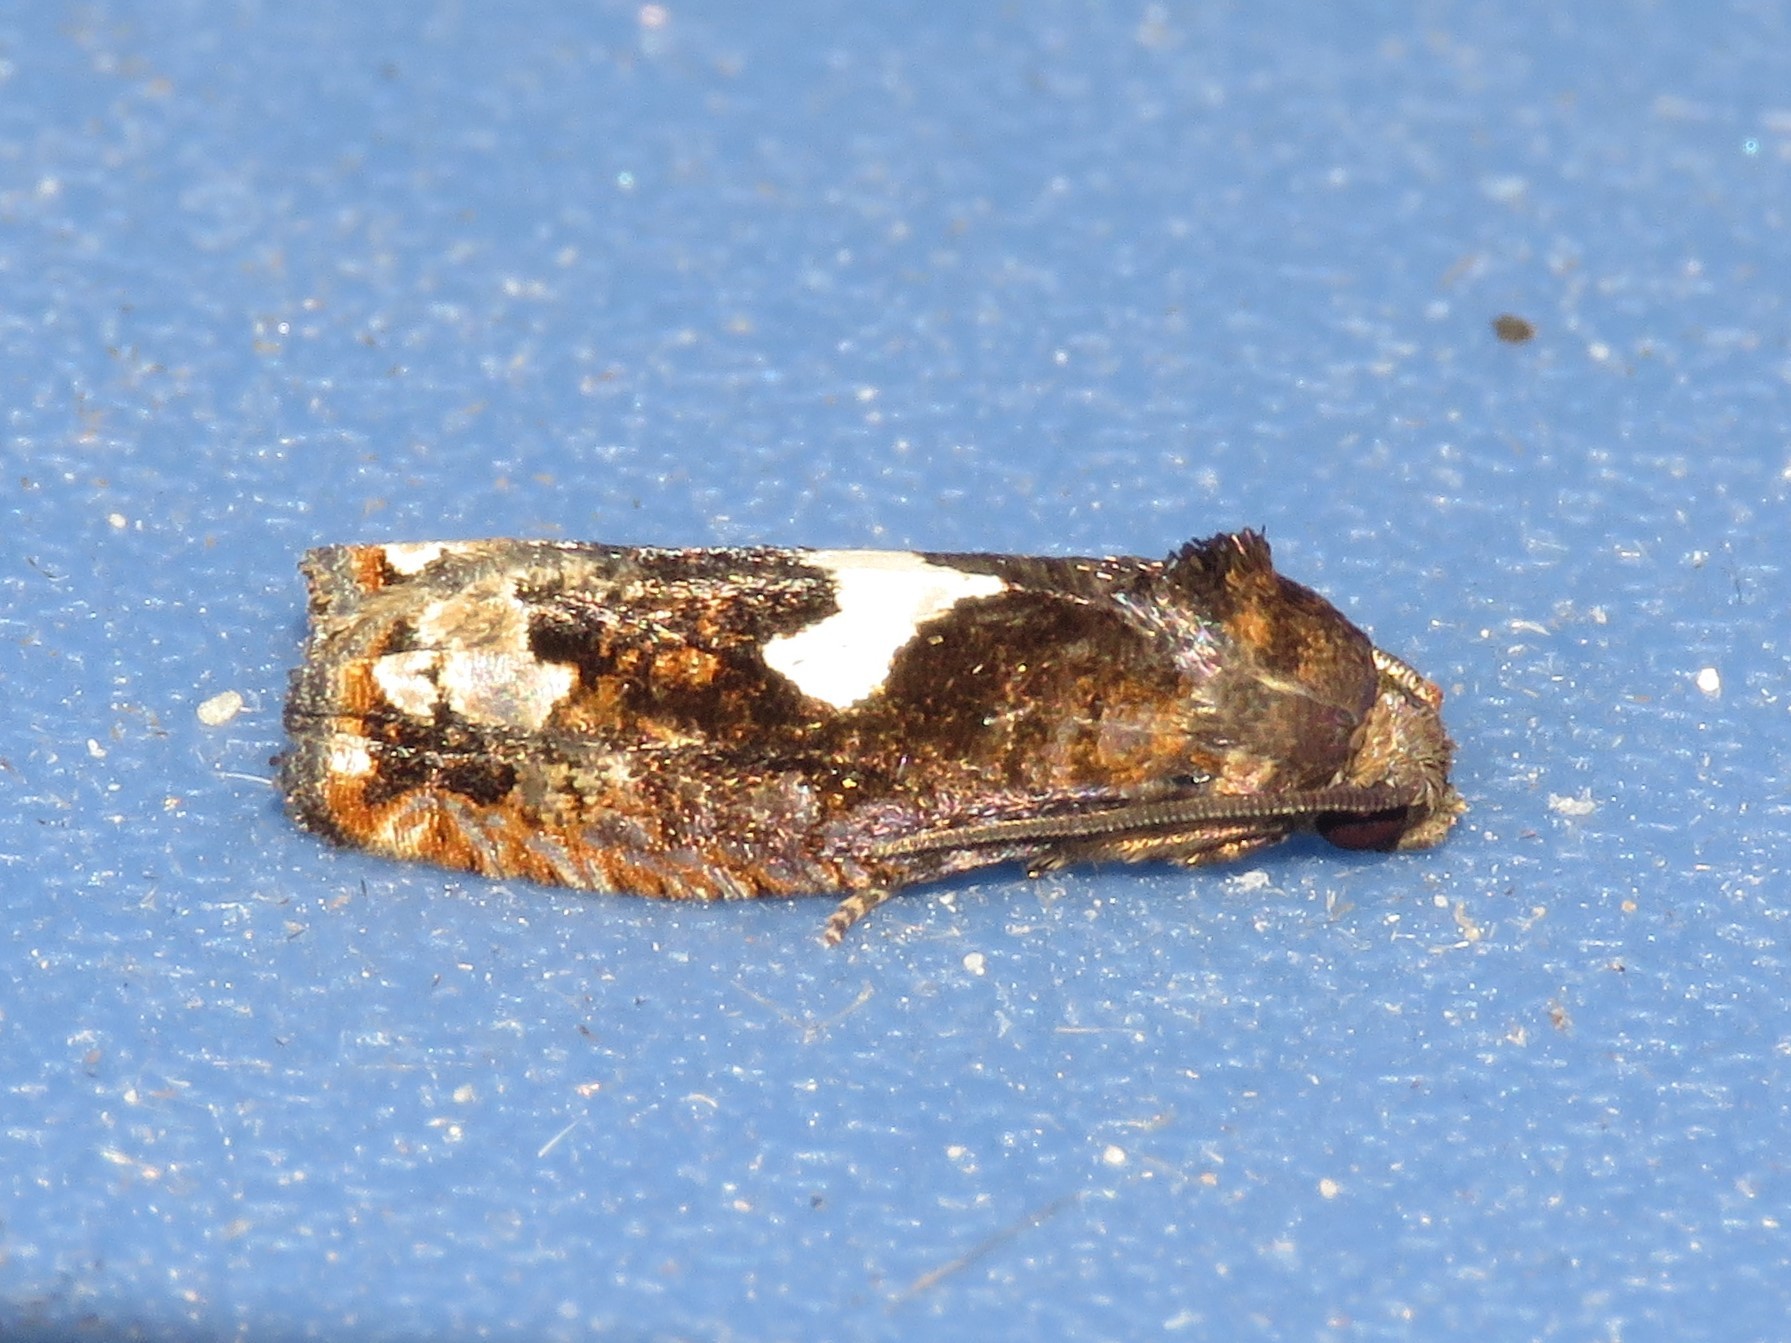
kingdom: Animalia
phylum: Arthropoda
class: Insecta
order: Lepidoptera
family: Tortricidae
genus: Epiblema
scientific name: Epiblema otiosana
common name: Bidens borer moth
